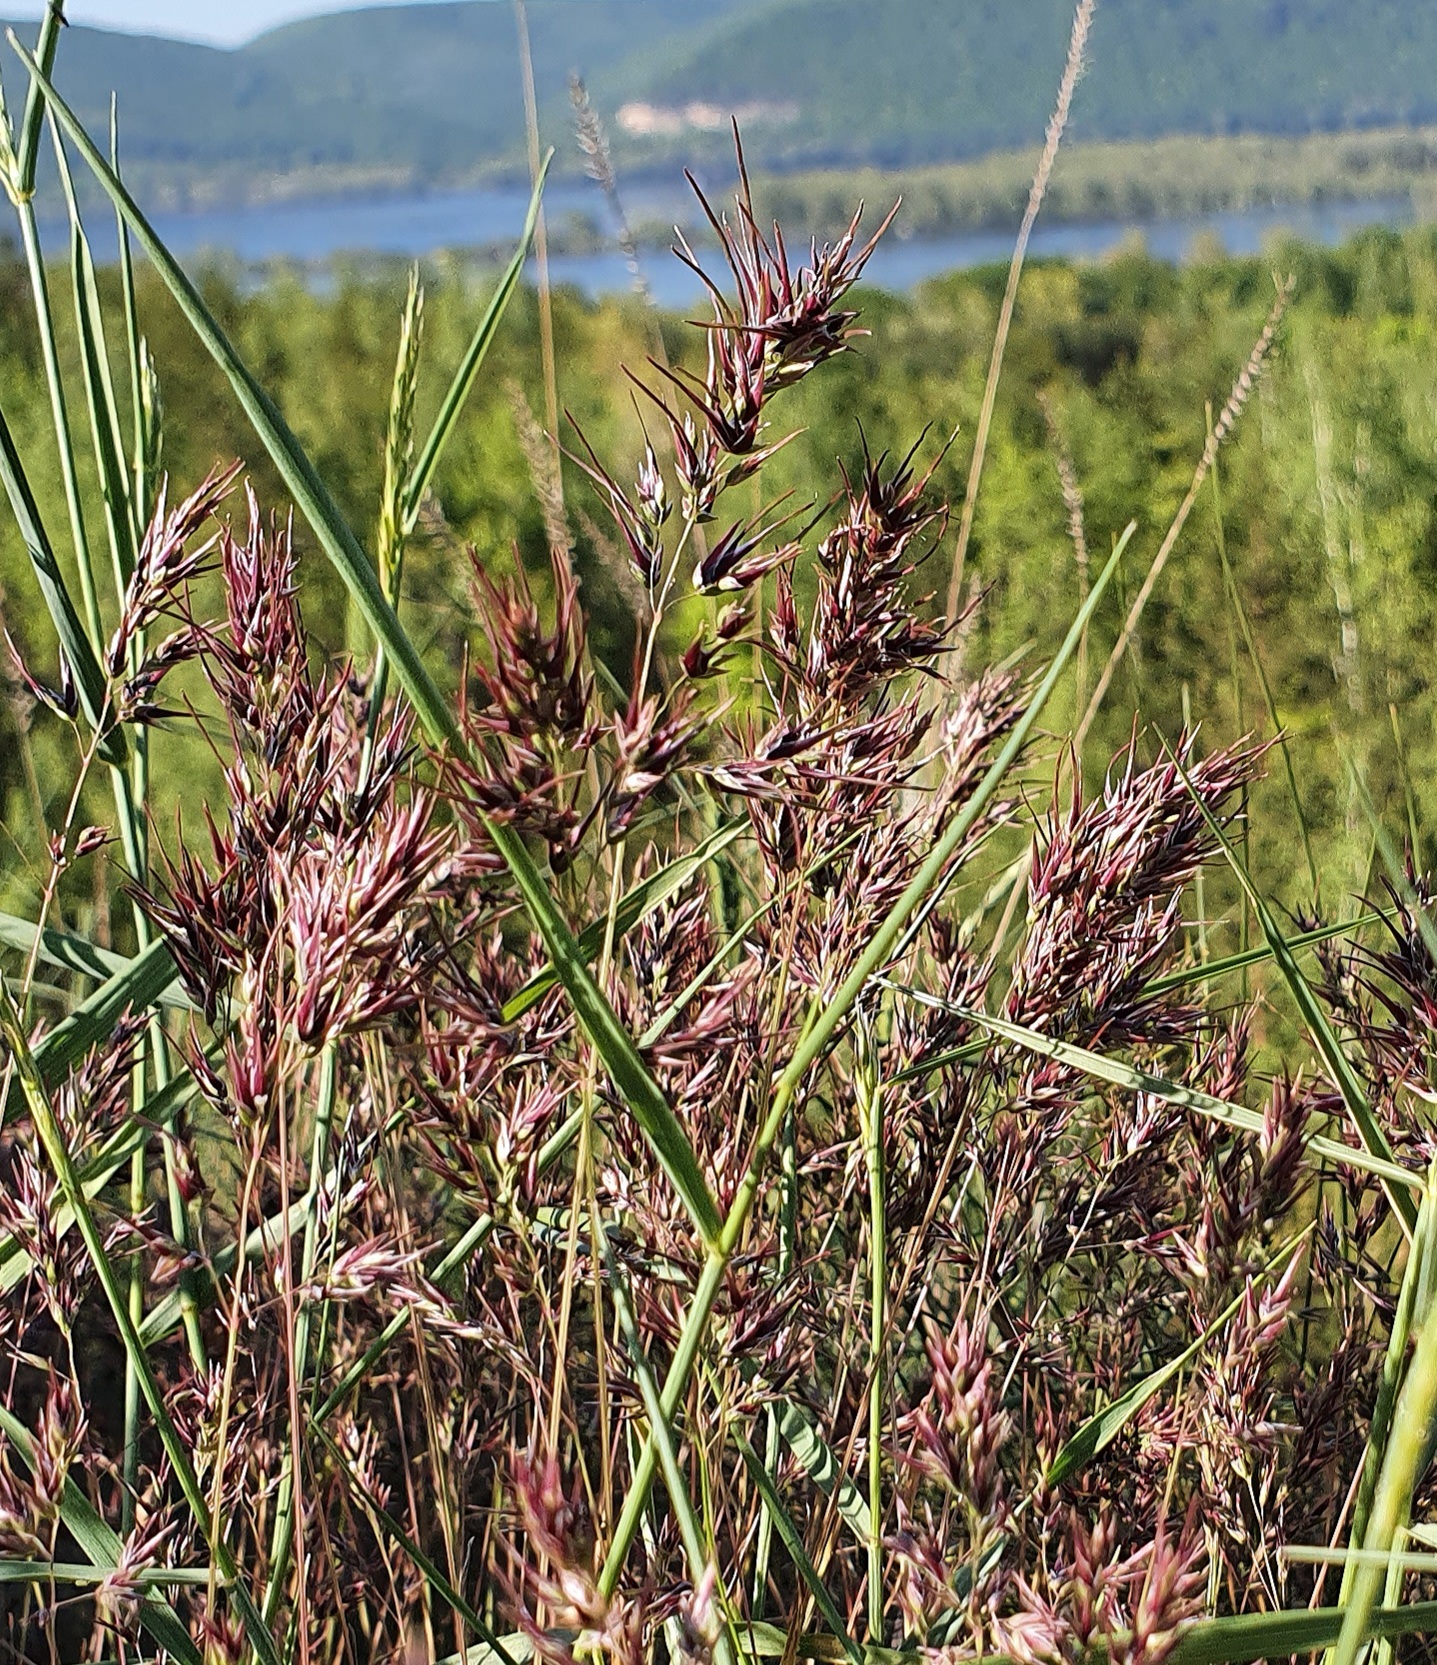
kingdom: Plantae
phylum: Tracheophyta
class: Liliopsida
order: Poales
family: Poaceae
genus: Poa
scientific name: Poa bulbosa
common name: Bulbous bluegrass
